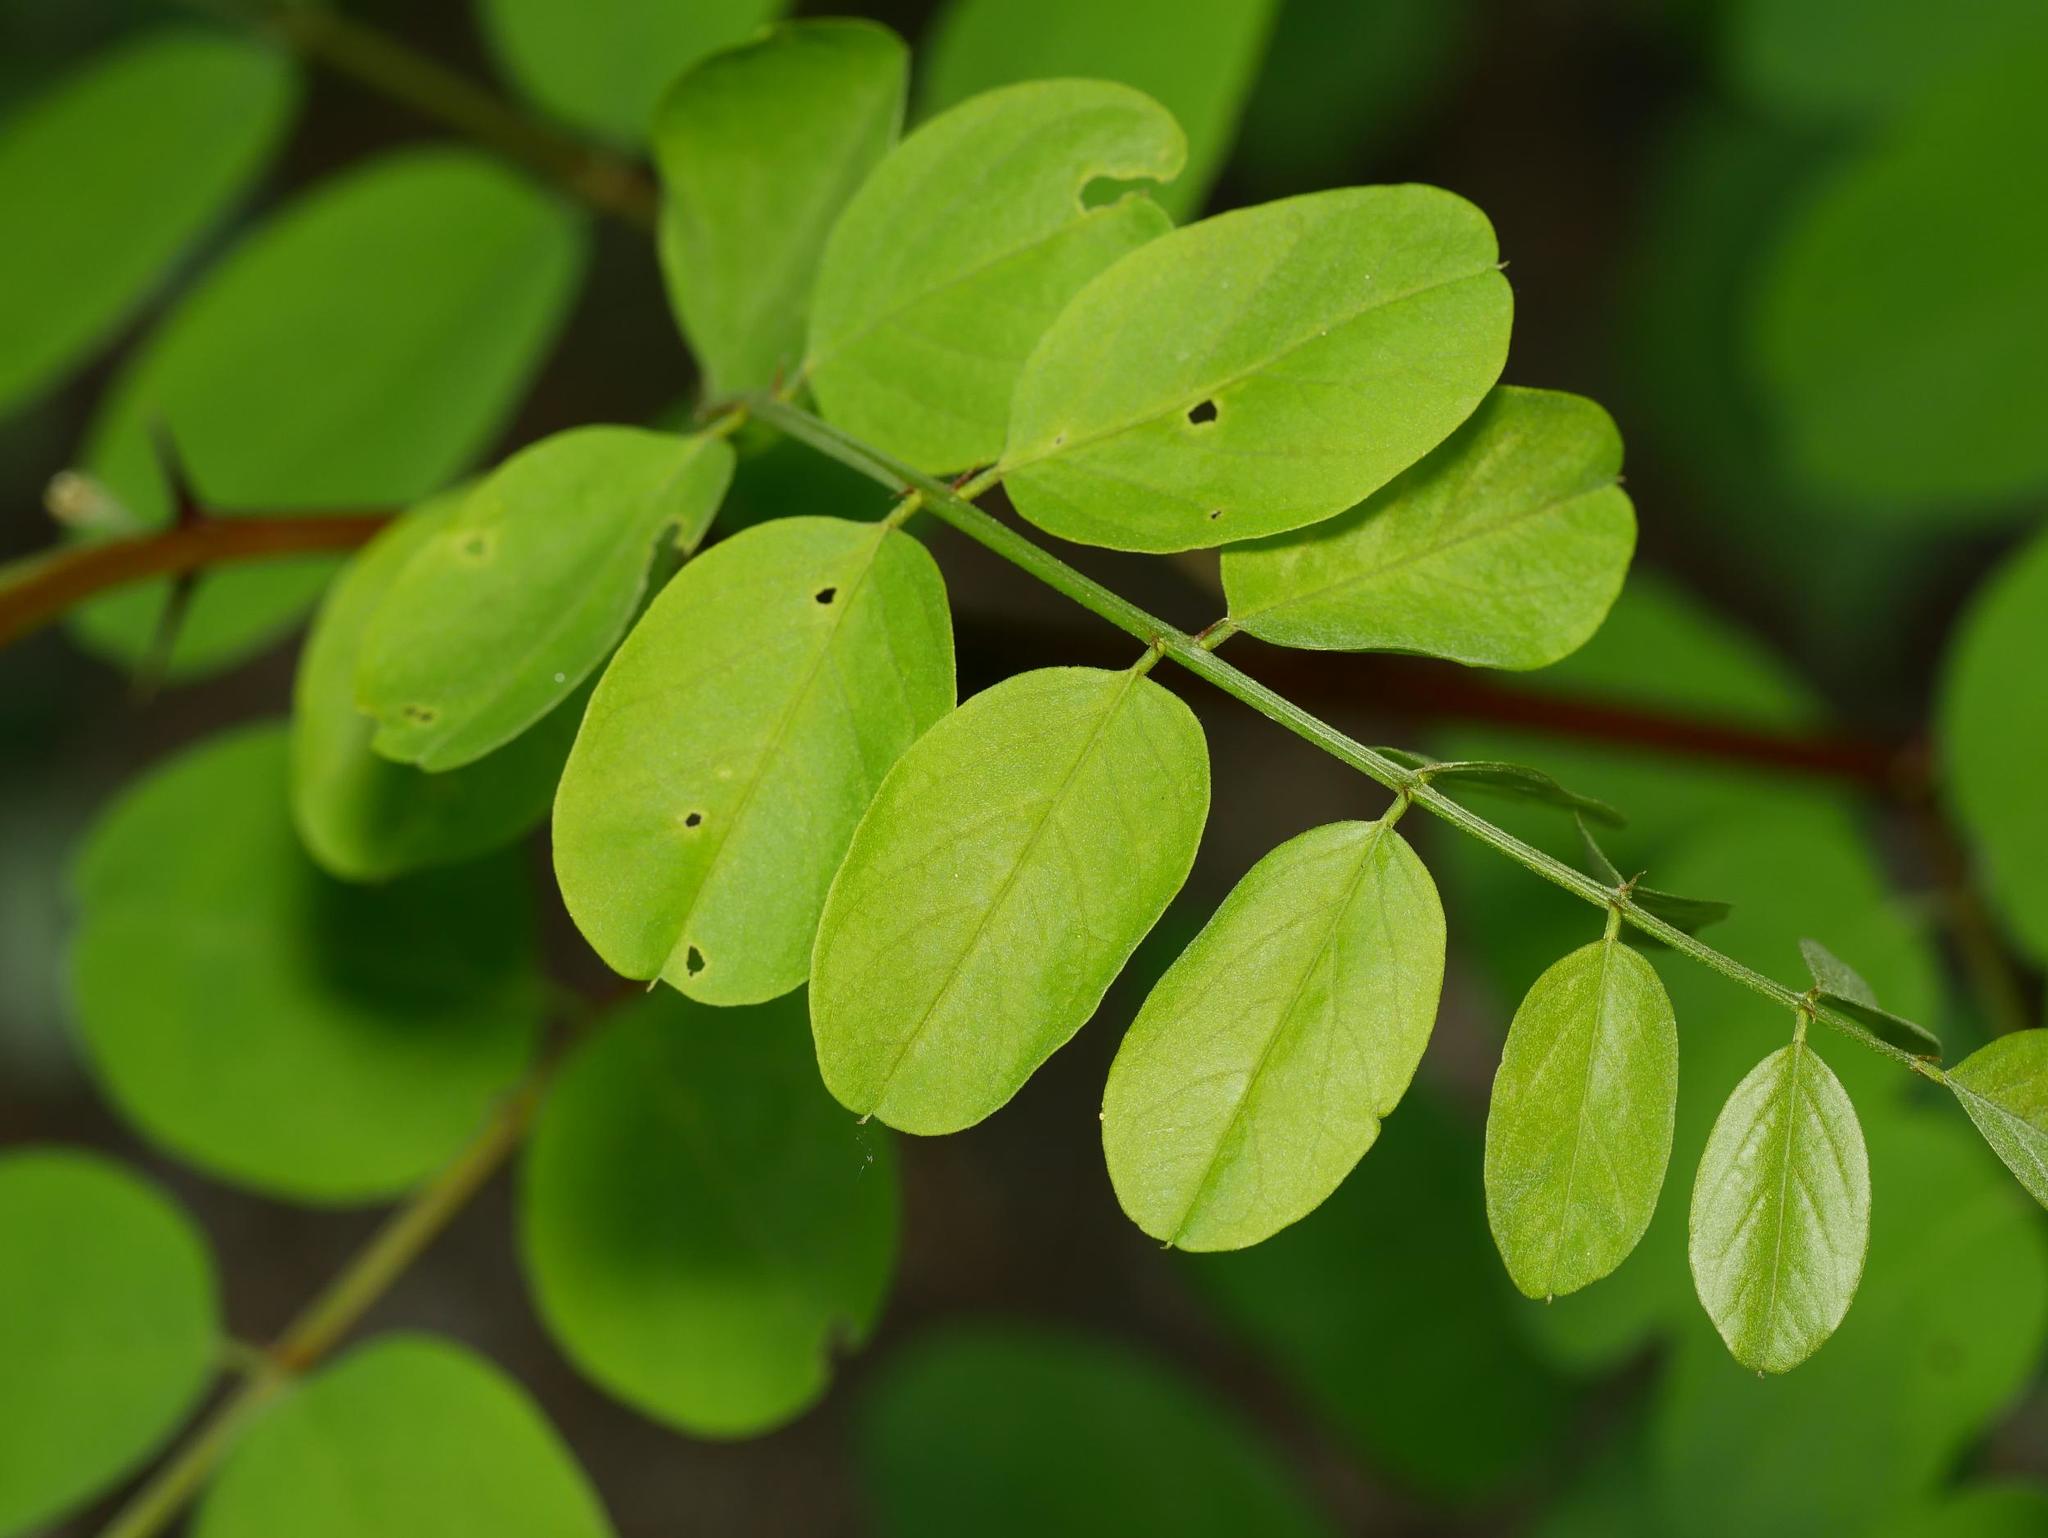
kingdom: Plantae
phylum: Tracheophyta
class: Magnoliopsida
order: Fabales
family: Fabaceae
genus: Robinia
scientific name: Robinia pseudoacacia
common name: Black locust
